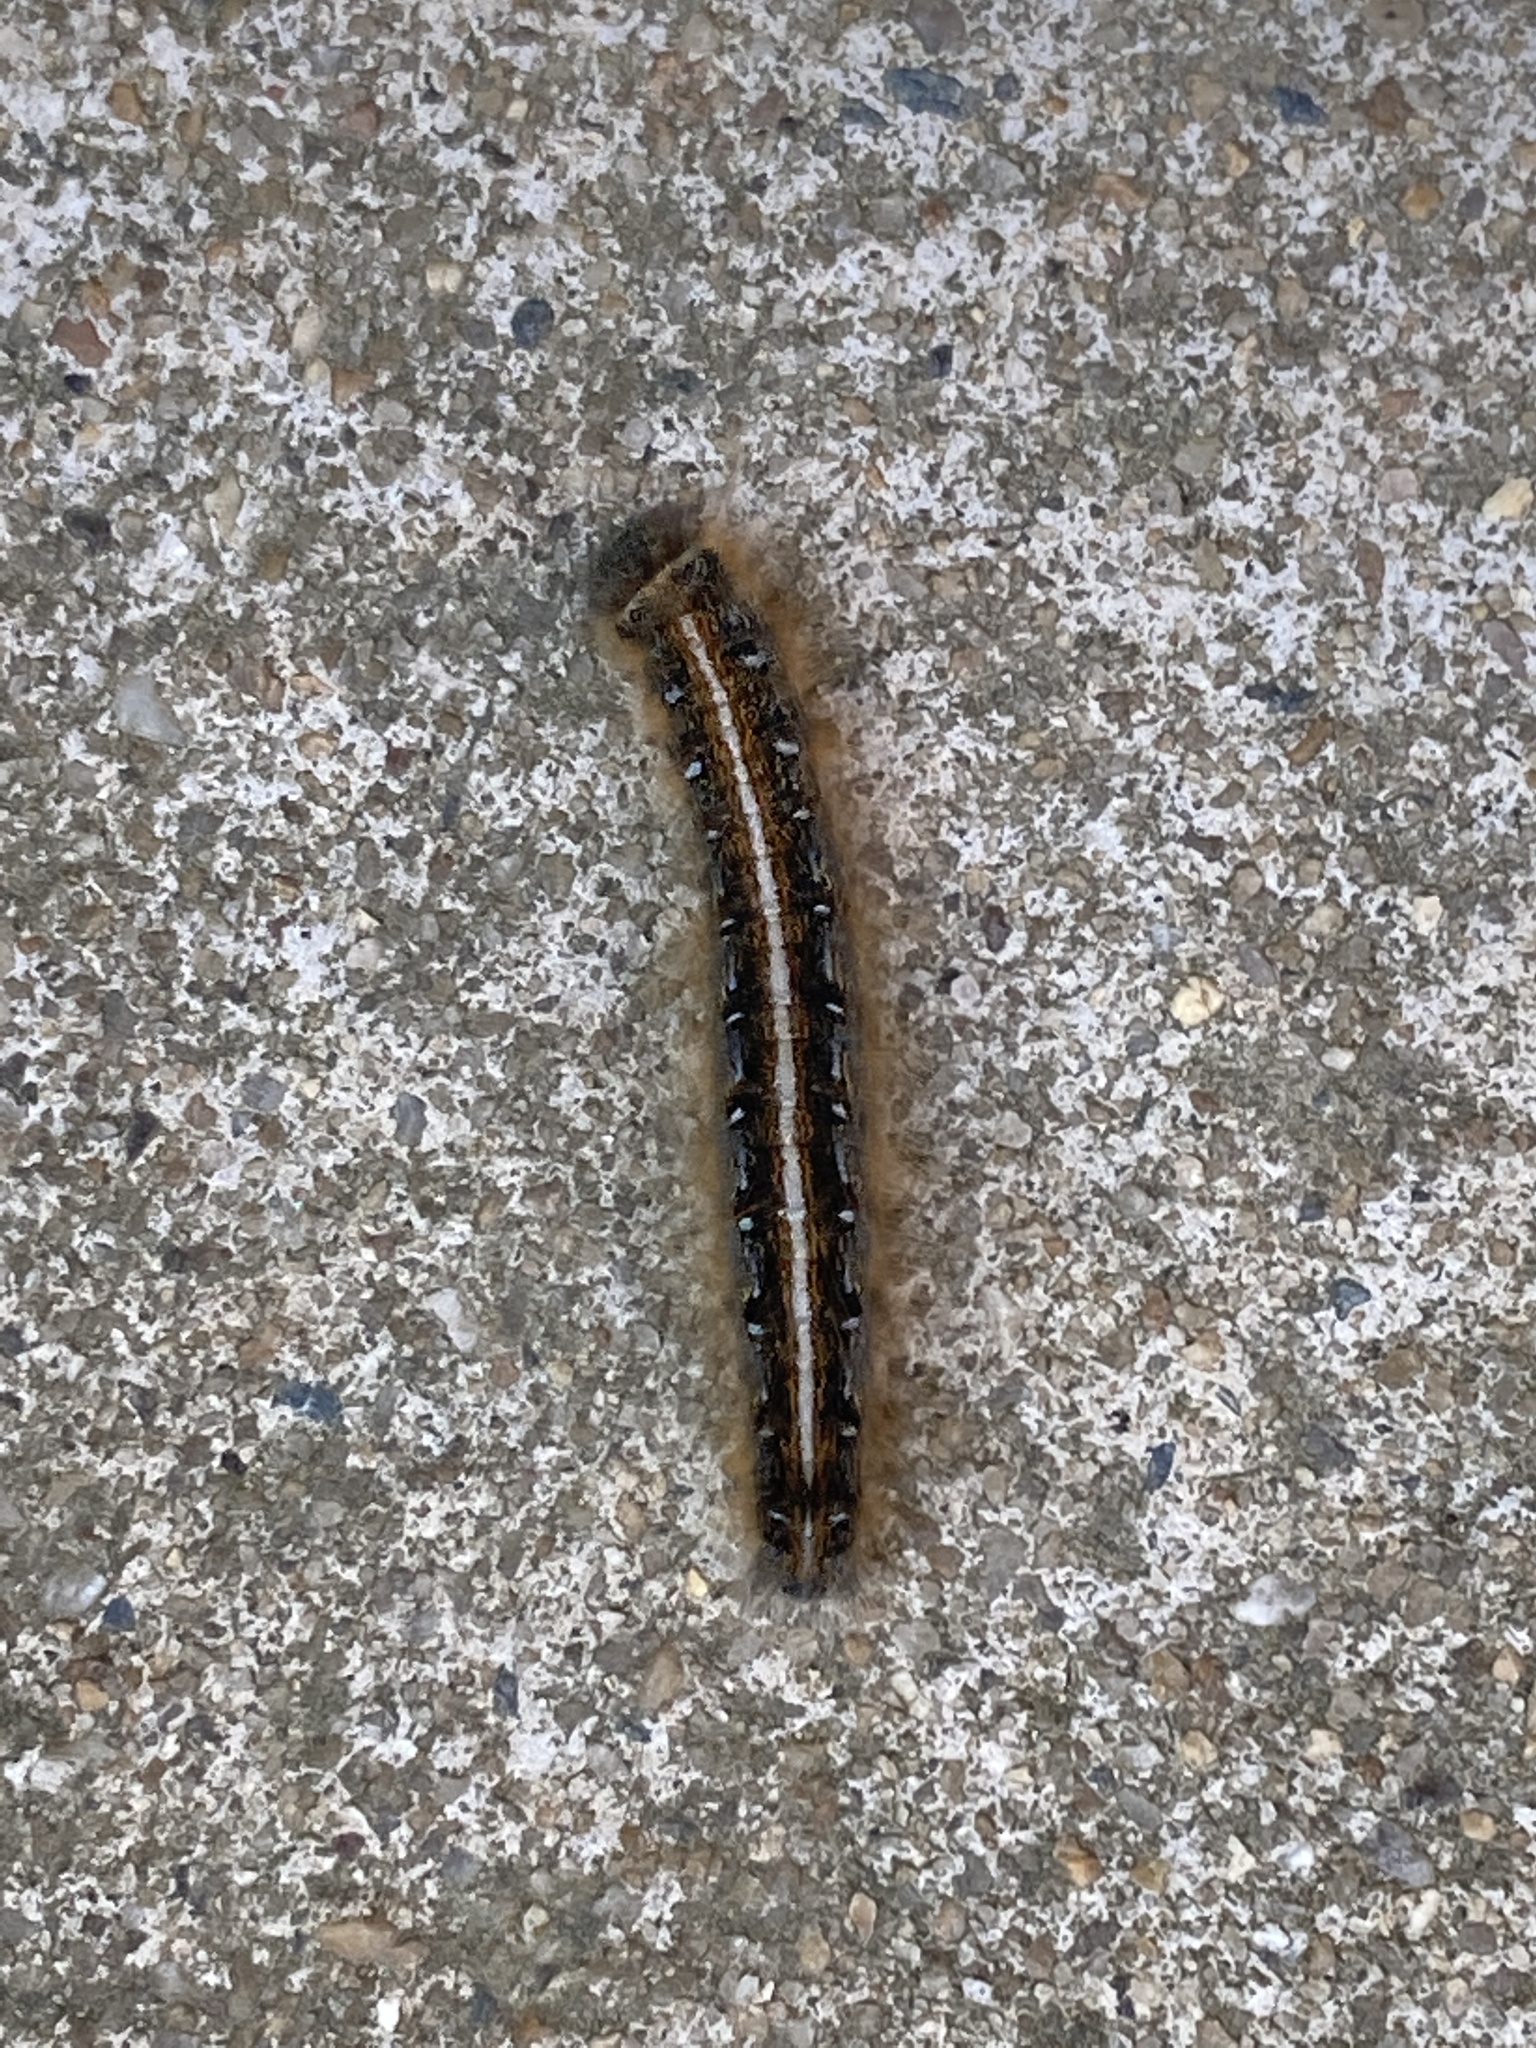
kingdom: Animalia
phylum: Arthropoda
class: Insecta
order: Lepidoptera
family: Lasiocampidae
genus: Malacosoma
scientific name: Malacosoma americana
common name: Eastern tent caterpillar moth
